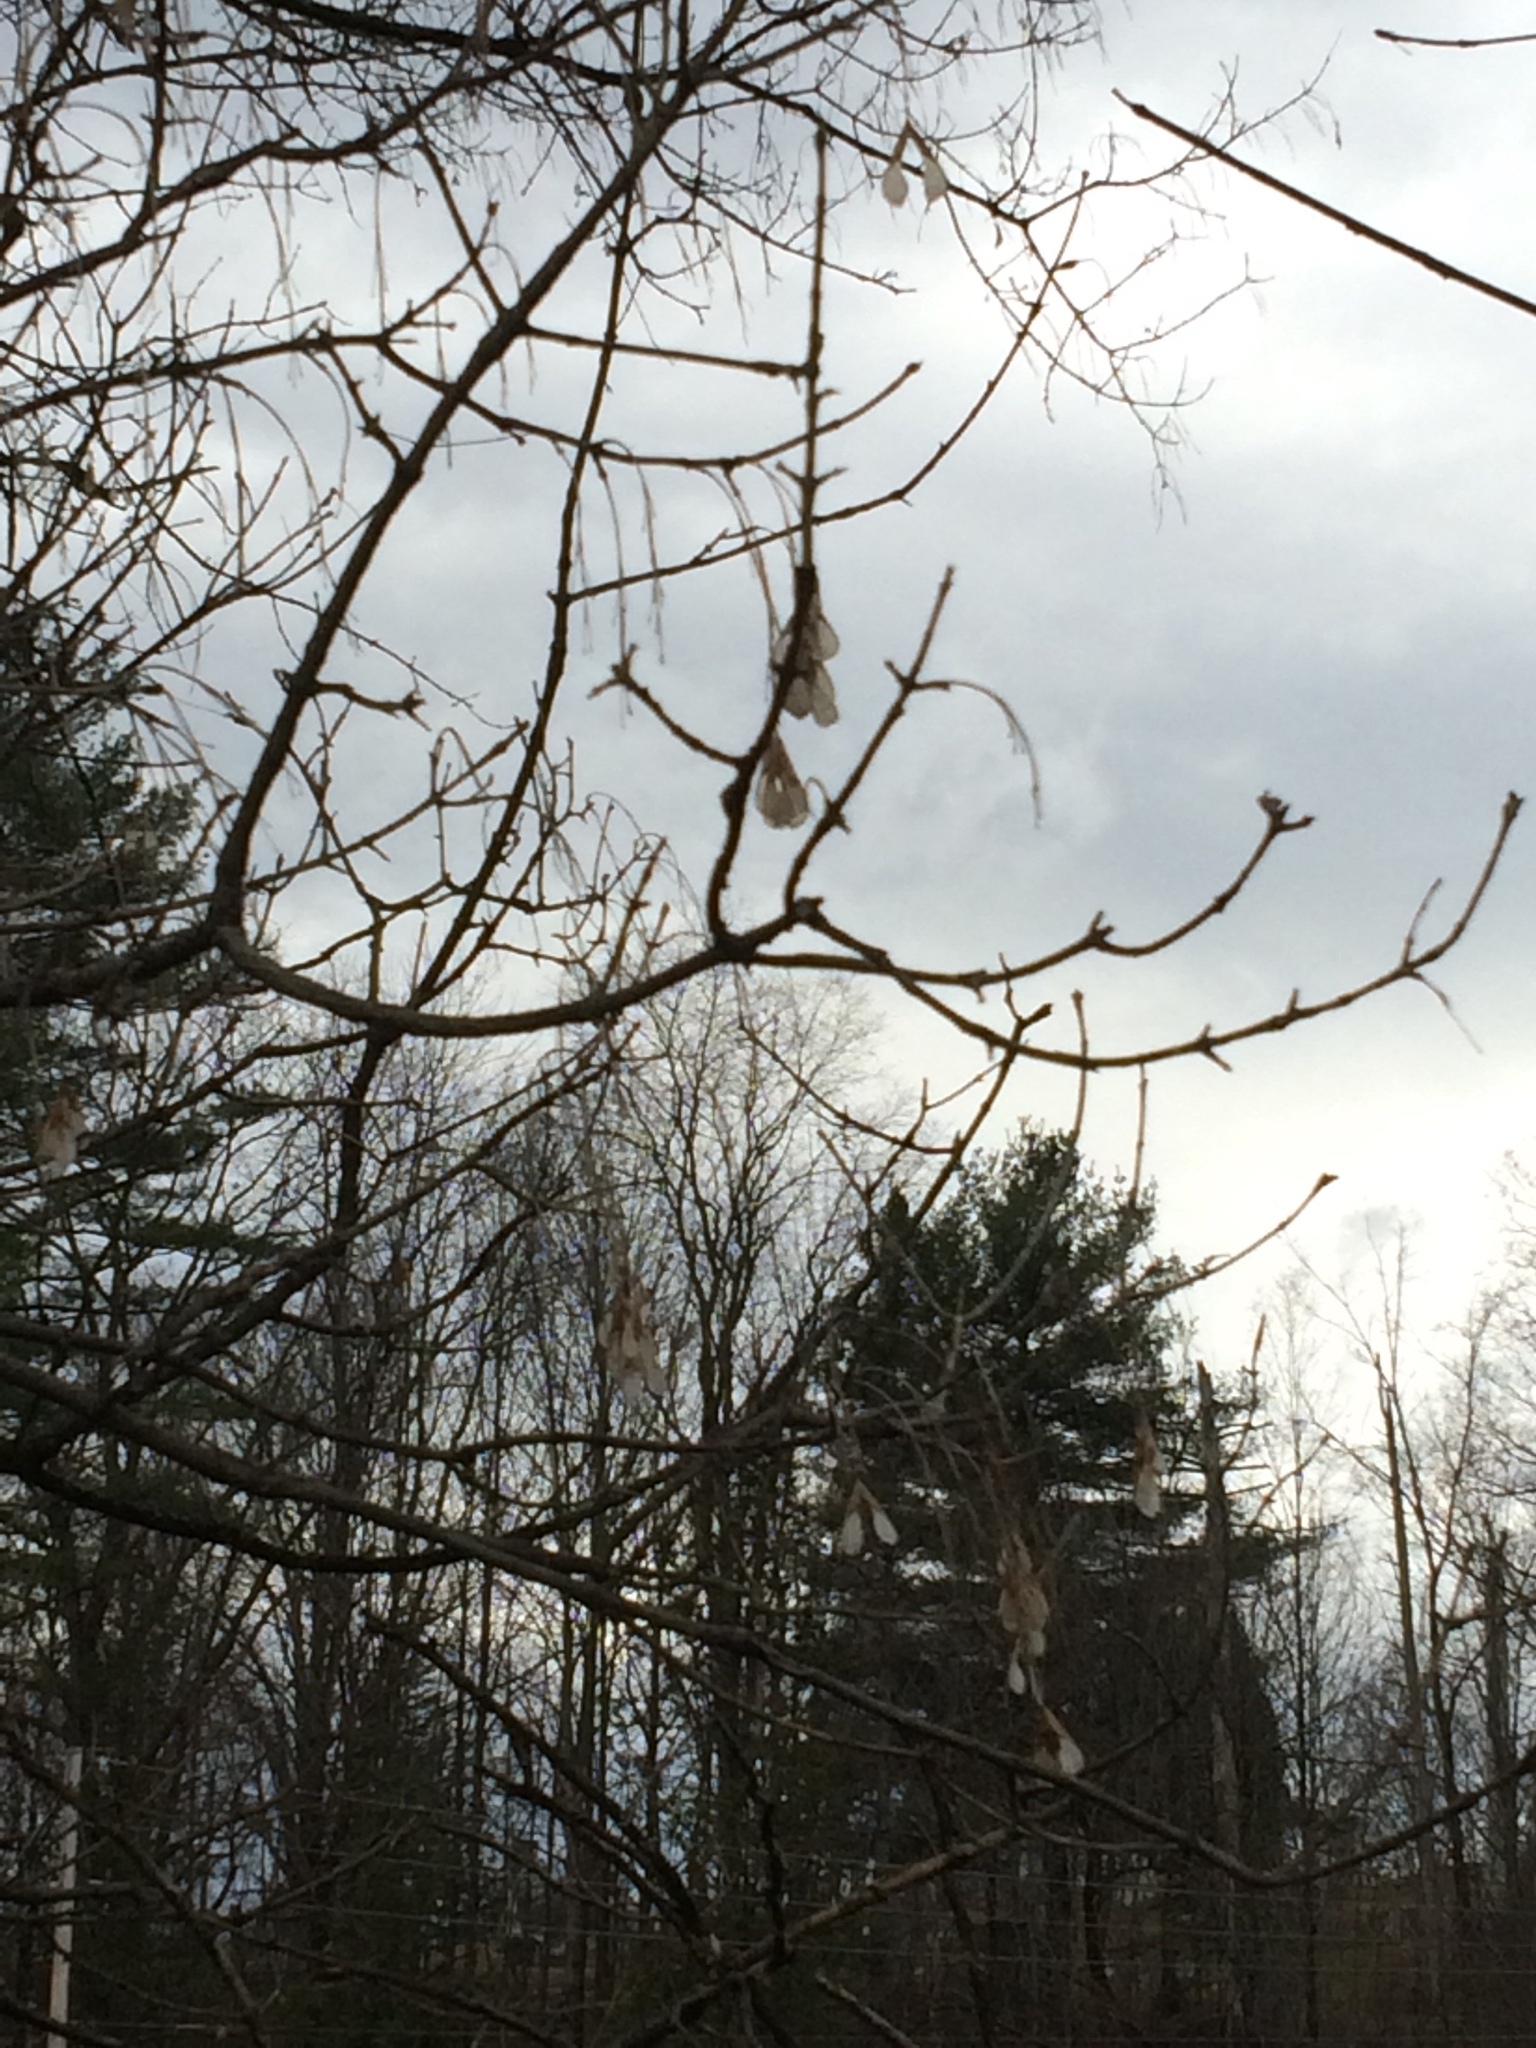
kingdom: Plantae
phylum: Tracheophyta
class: Magnoliopsida
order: Sapindales
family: Sapindaceae
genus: Acer
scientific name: Acer negundo
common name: Ashleaf maple
